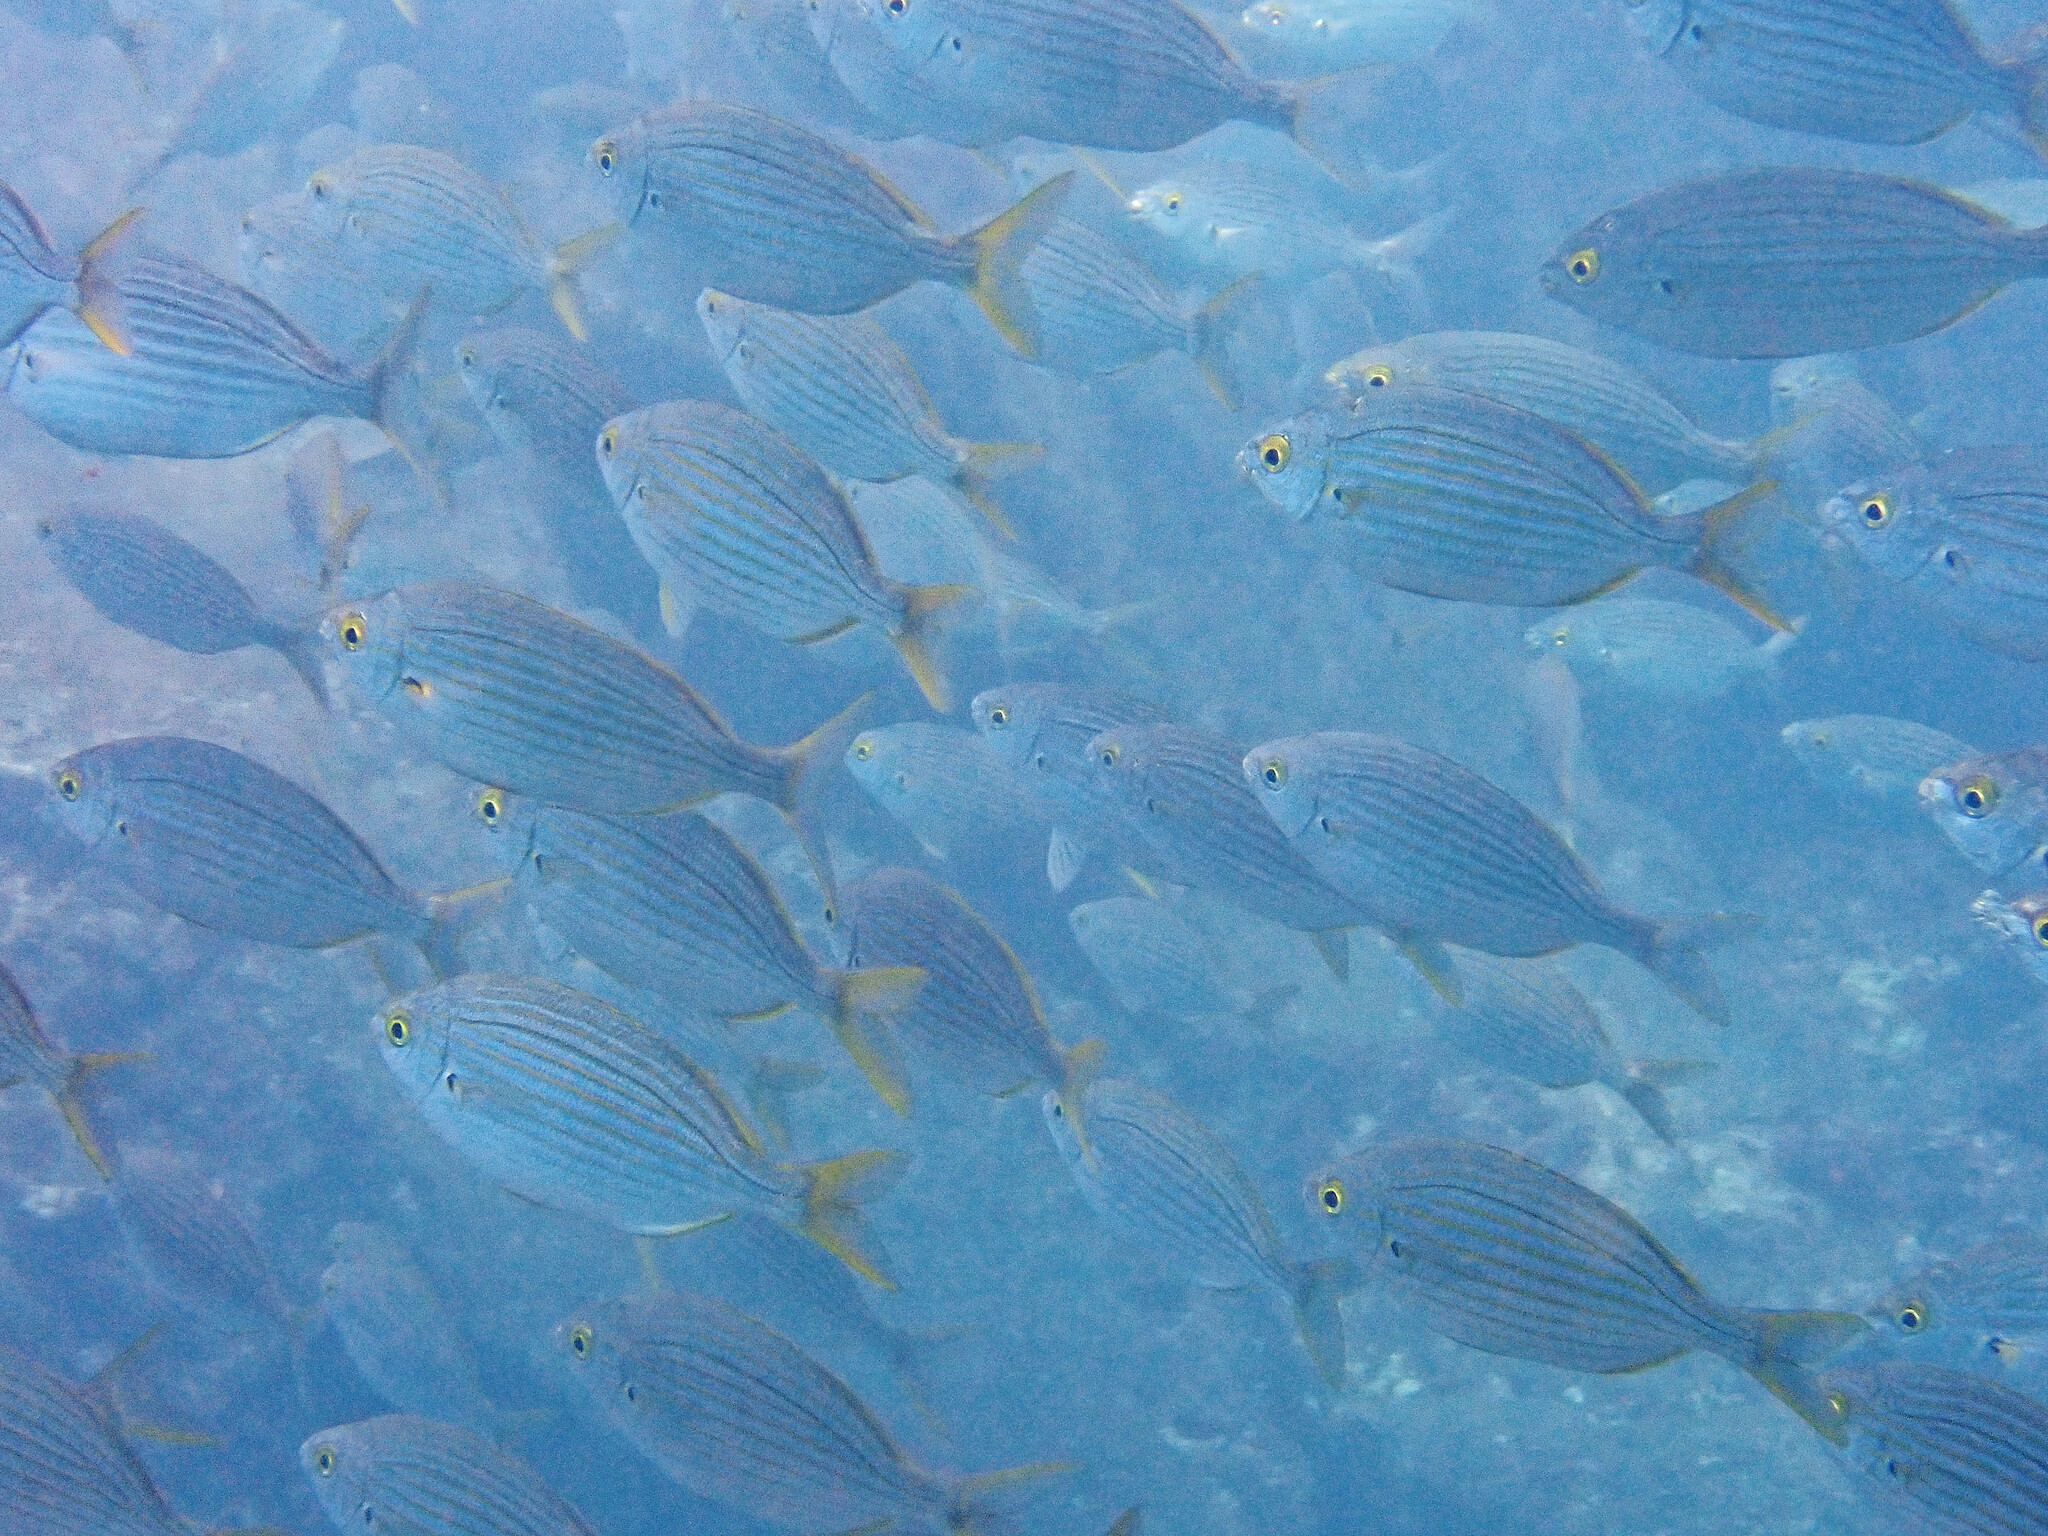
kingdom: Animalia
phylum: Chordata
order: Perciformes
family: Sparidae
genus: Sarpa
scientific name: Sarpa salpa
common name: Salema
